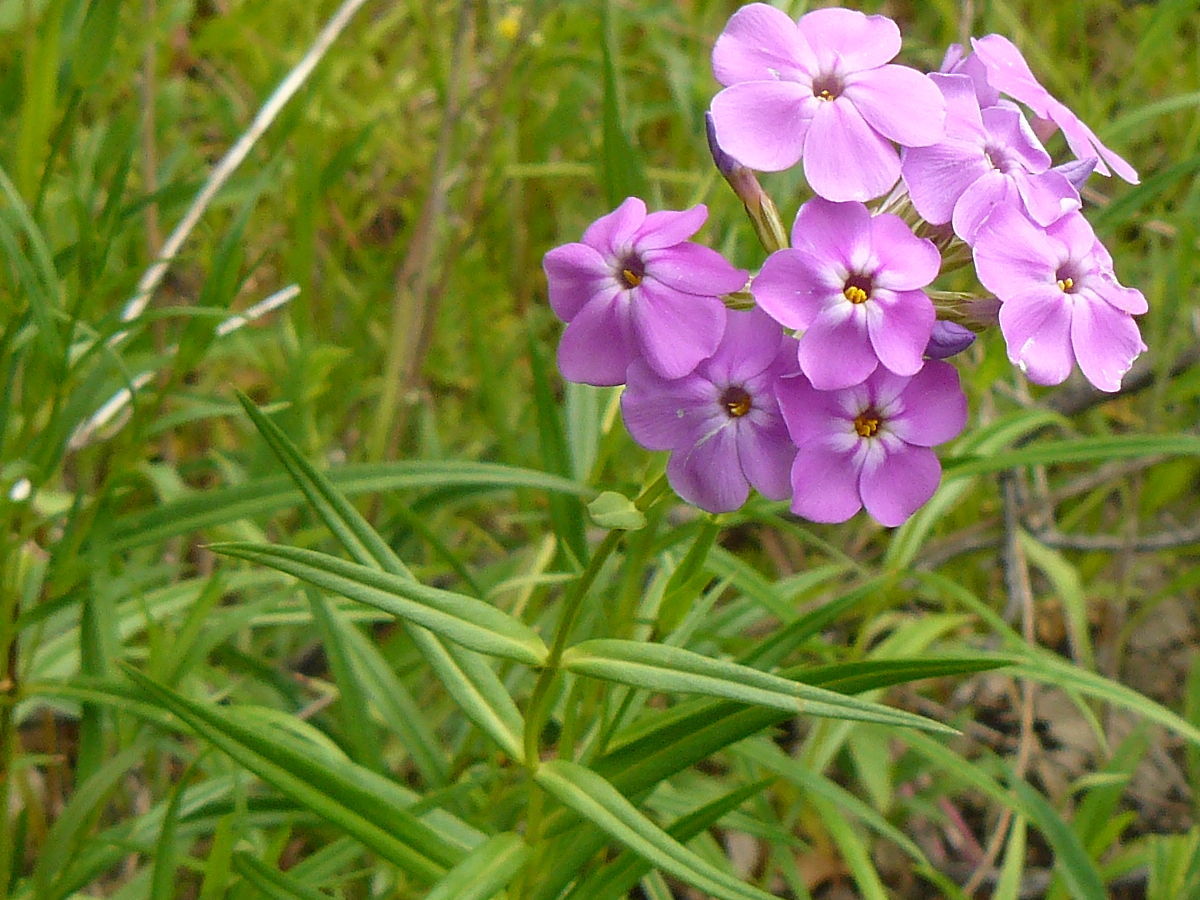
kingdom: Plantae
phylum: Tracheophyta
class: Magnoliopsida
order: Ericales
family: Polemoniaceae
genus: Phlox
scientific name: Phlox glaberrima
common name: Smooth phlox
